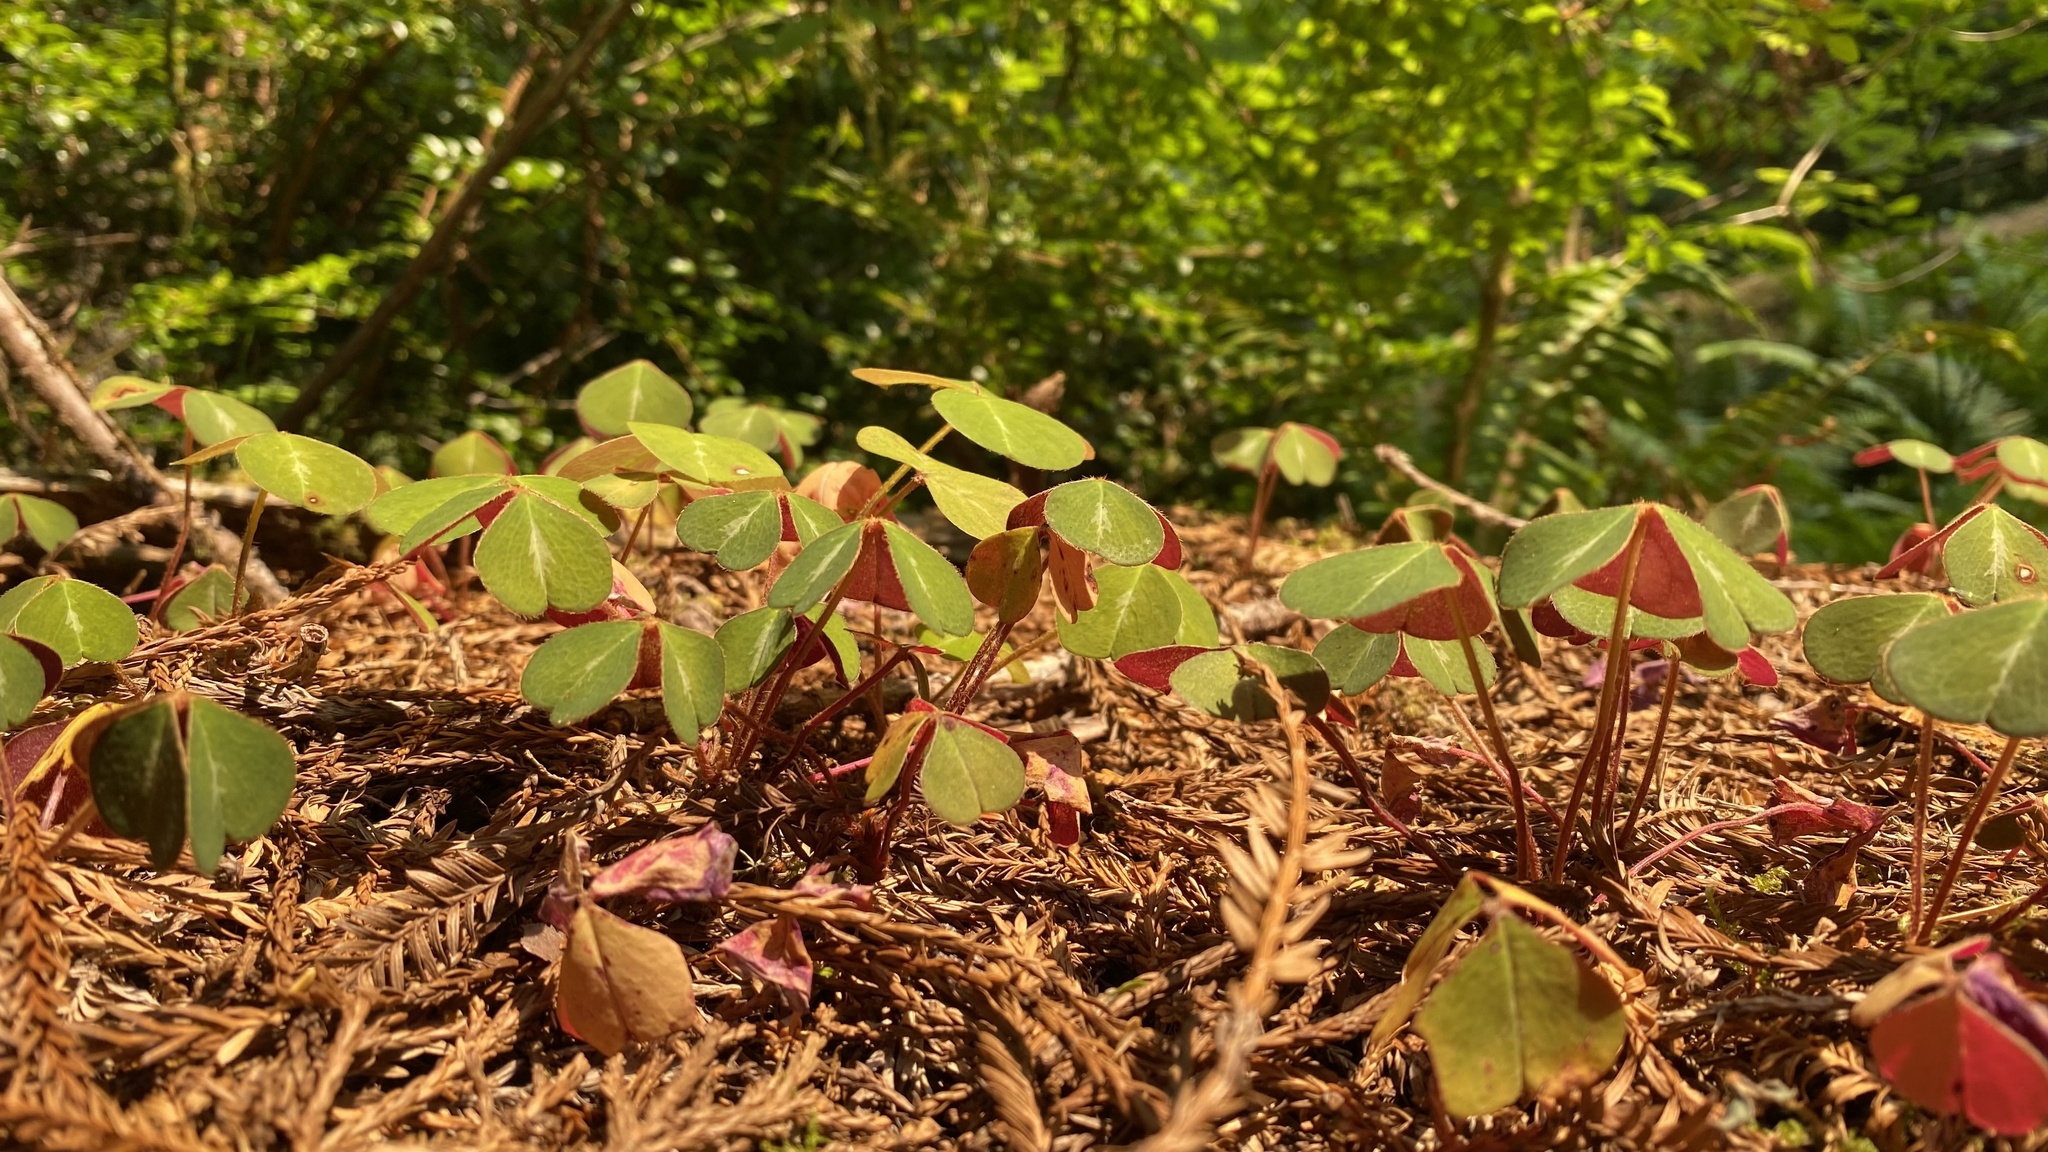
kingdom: Plantae
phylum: Tracheophyta
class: Magnoliopsida
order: Oxalidales
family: Oxalidaceae
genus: Oxalis
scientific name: Oxalis oregana
